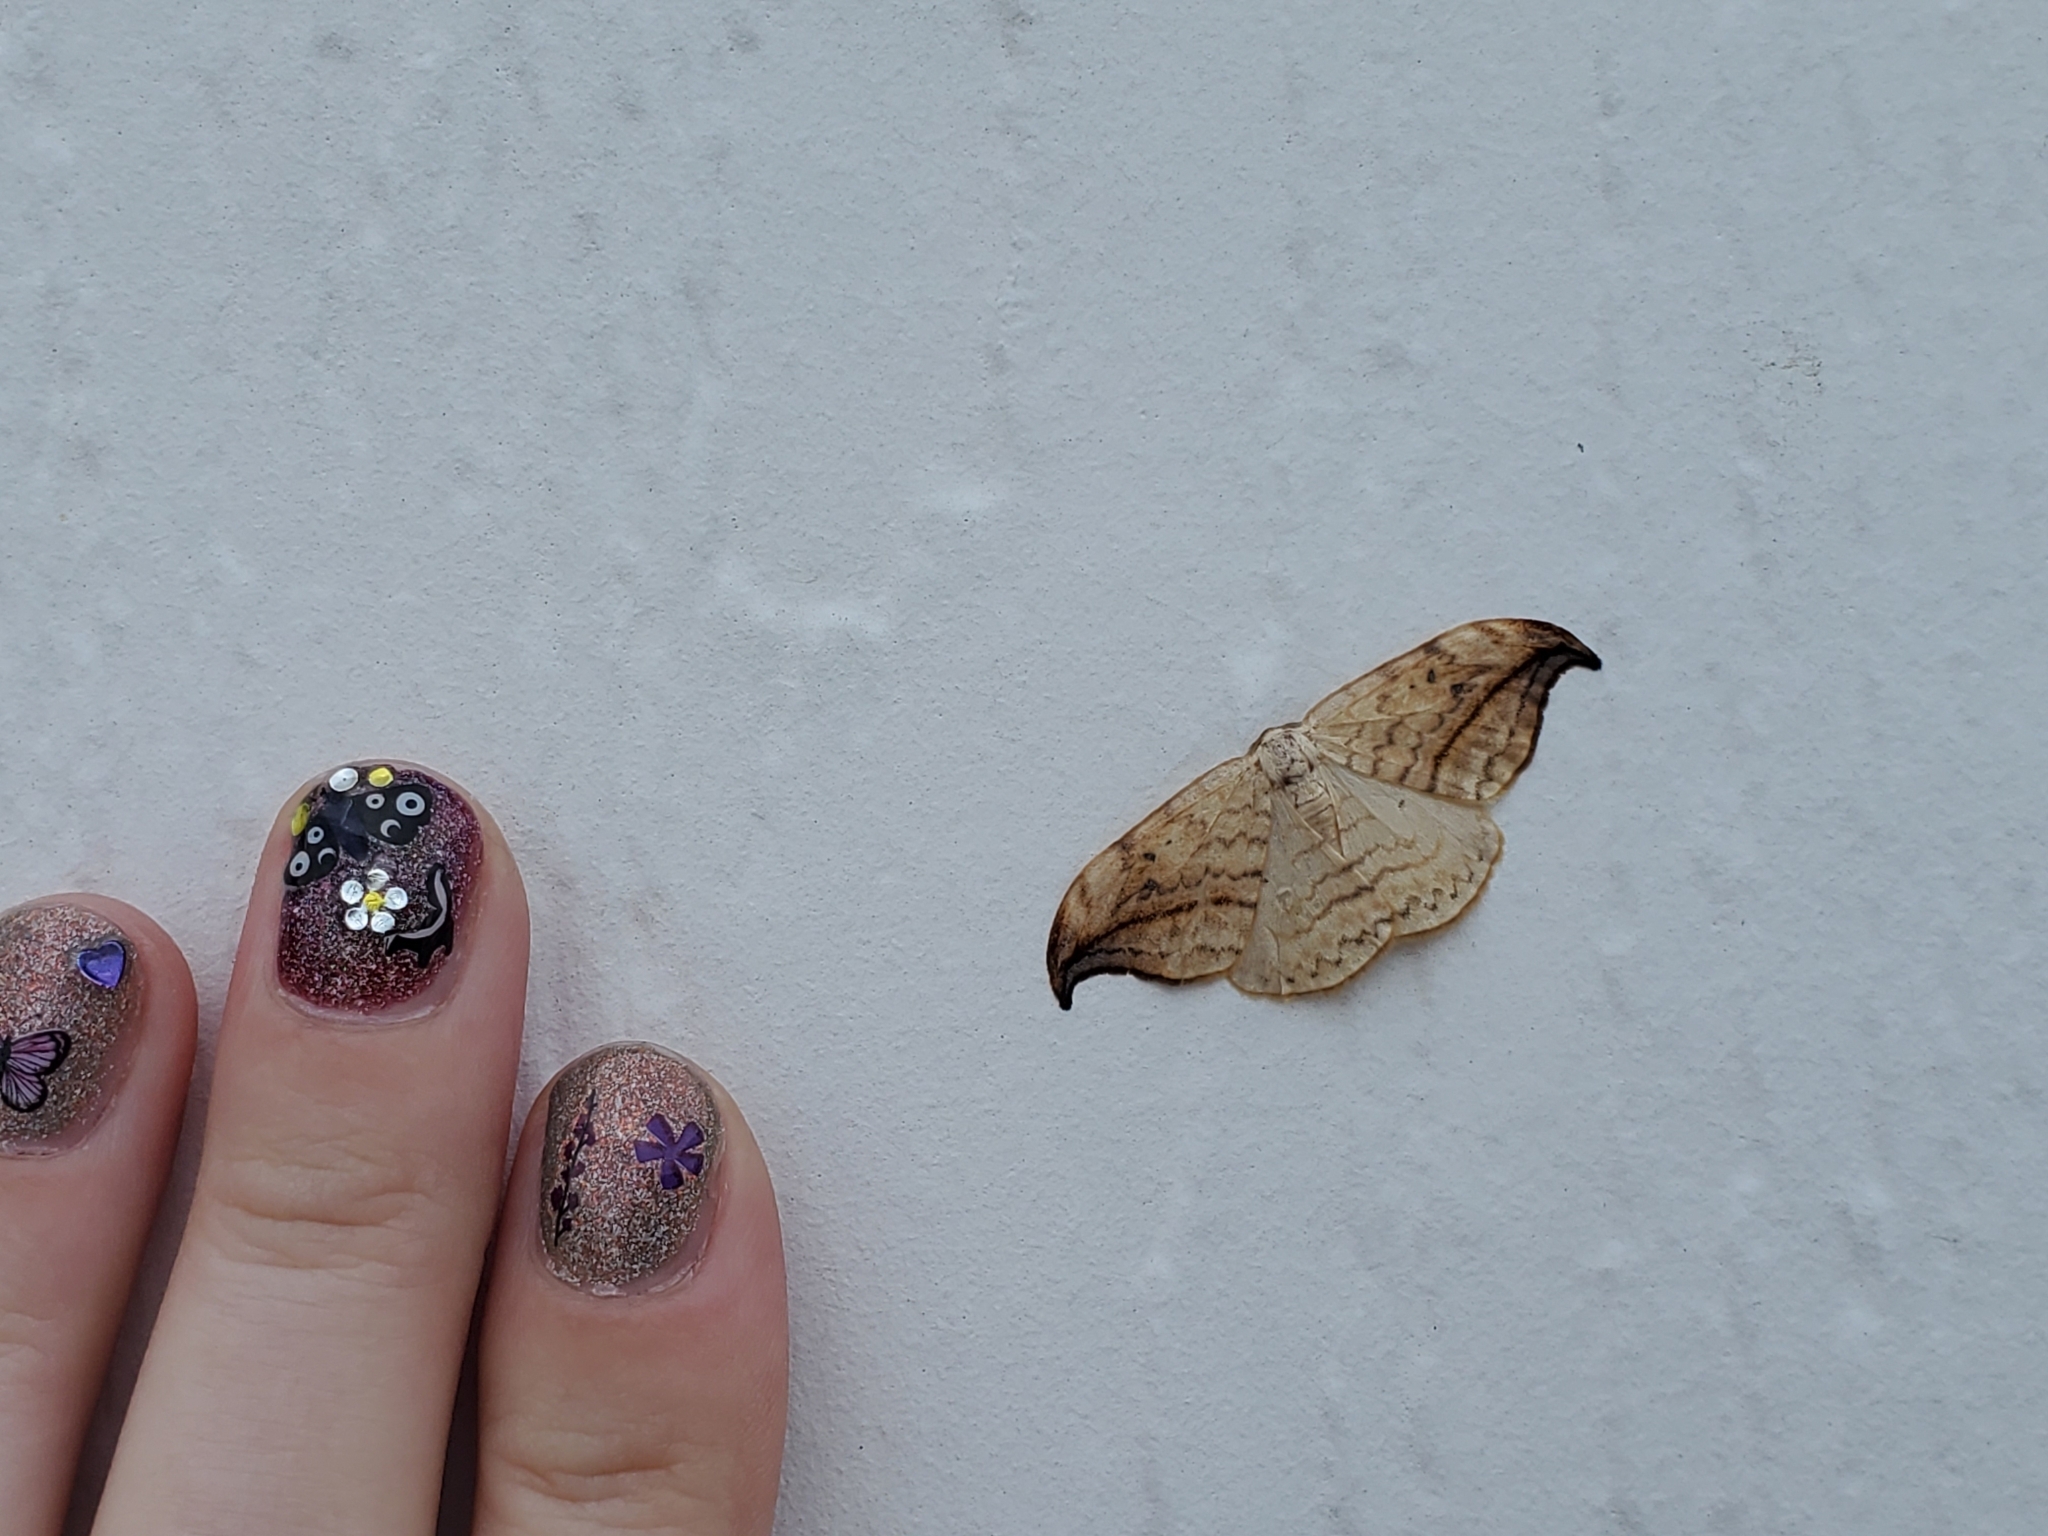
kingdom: Animalia
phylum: Arthropoda
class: Insecta
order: Lepidoptera
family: Drepanidae
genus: Drepana
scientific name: Drepana arcuata
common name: Arched hooktip moth
